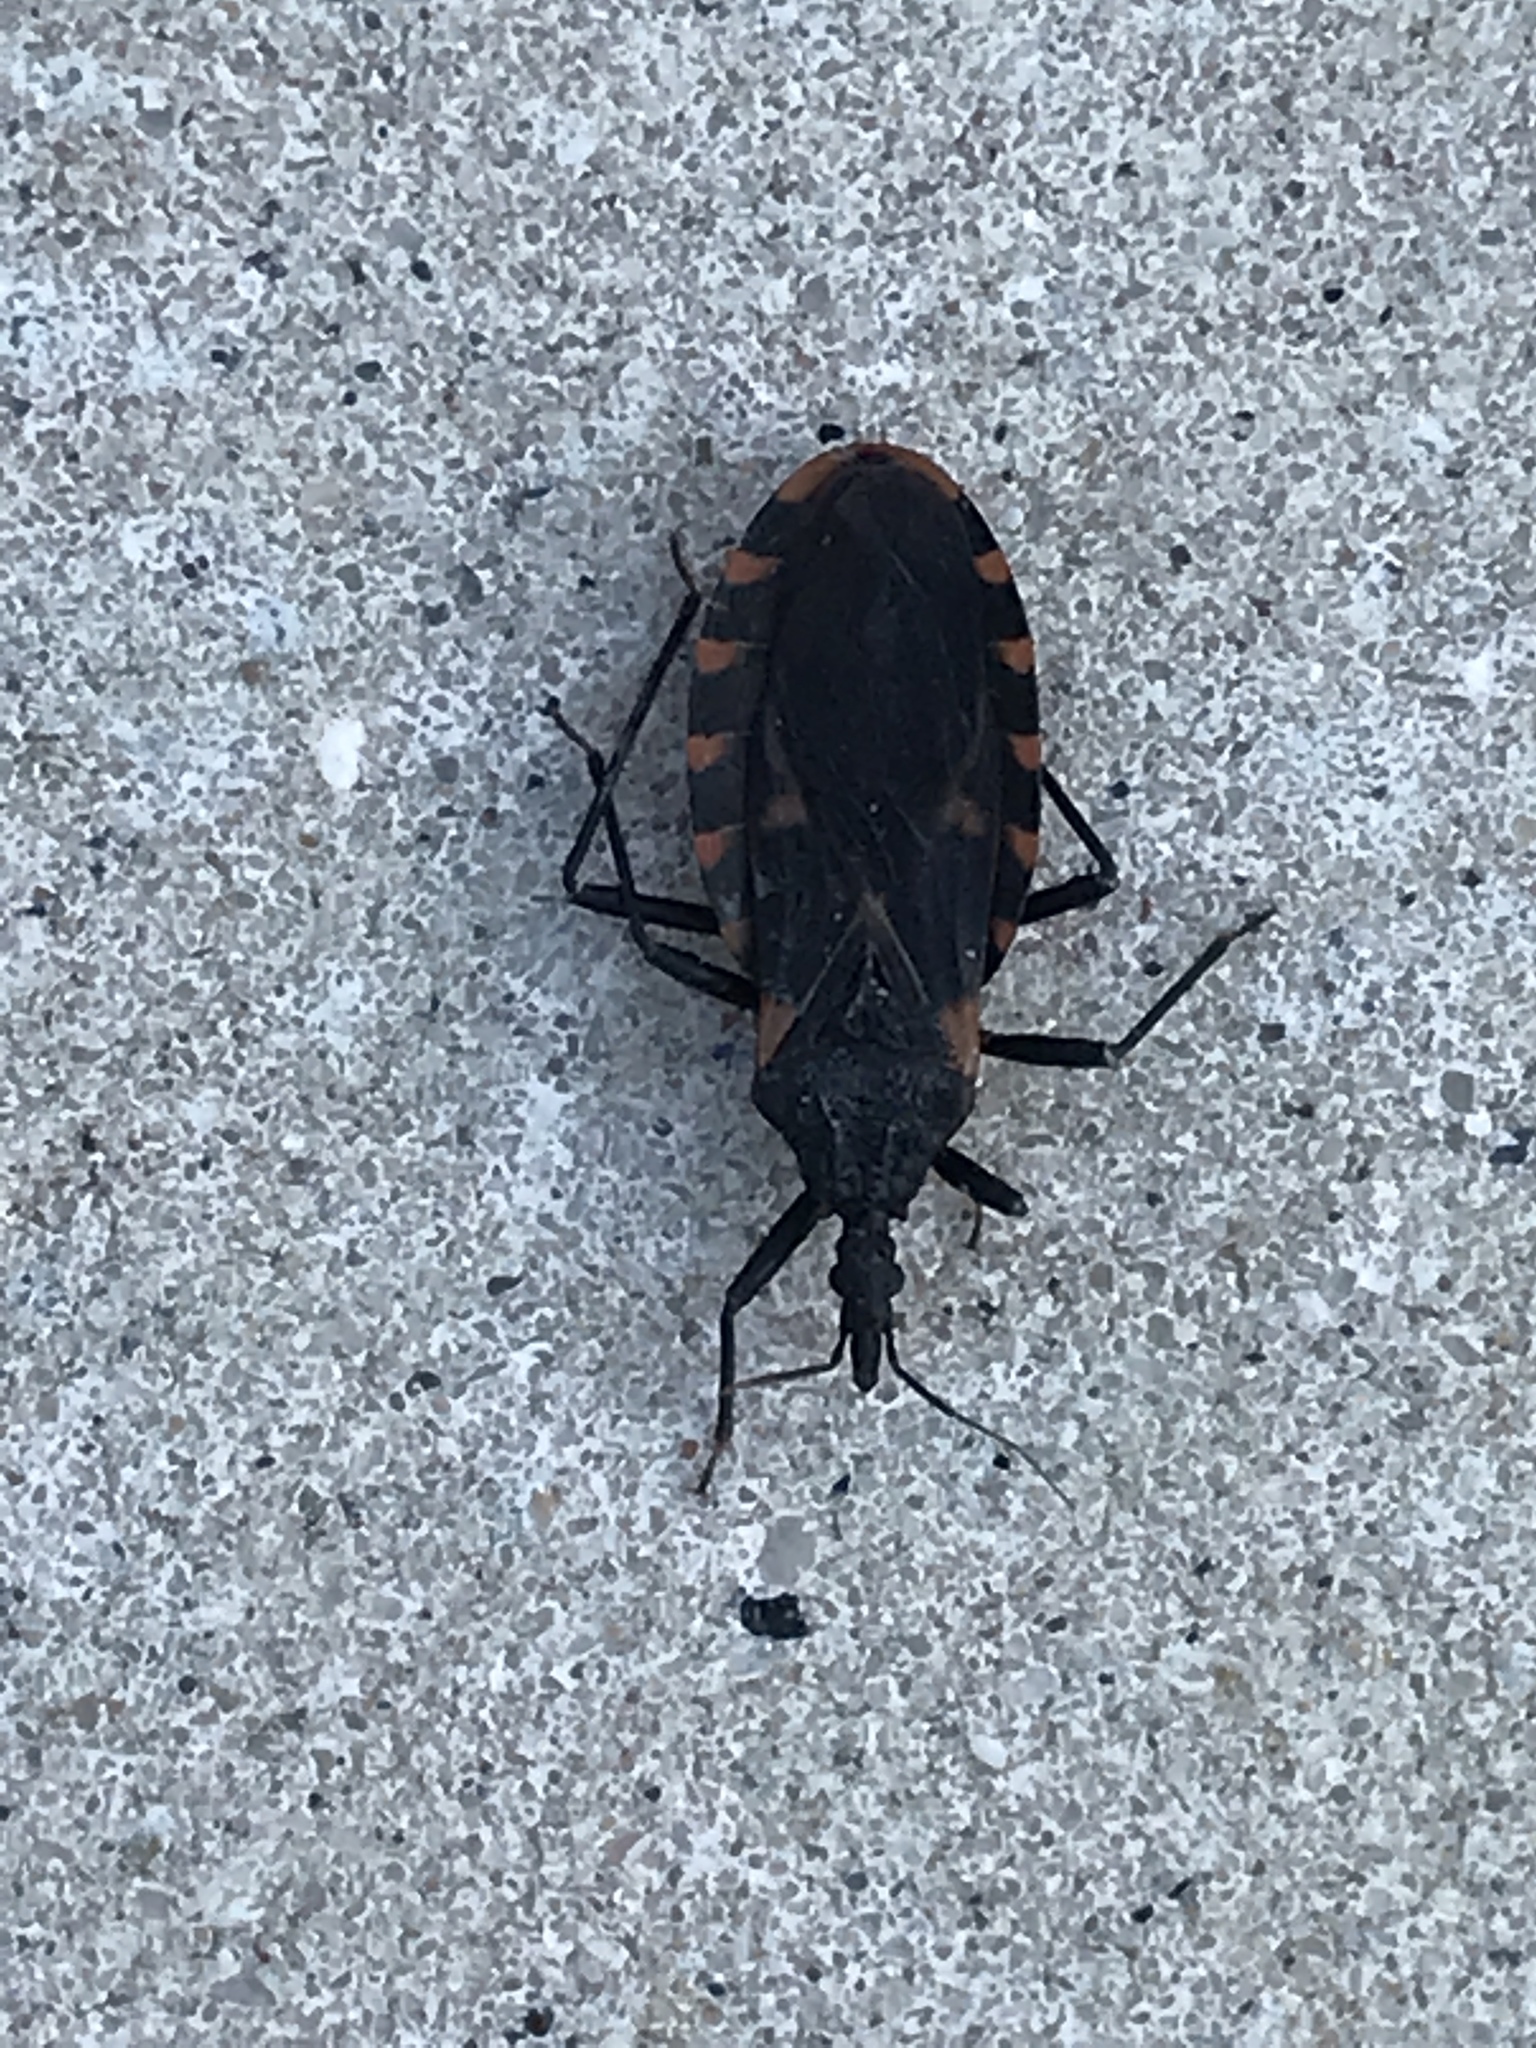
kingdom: Animalia
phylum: Arthropoda
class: Insecta
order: Hemiptera
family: Reduviidae
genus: Triatoma
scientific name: Triatoma sanguisuga
